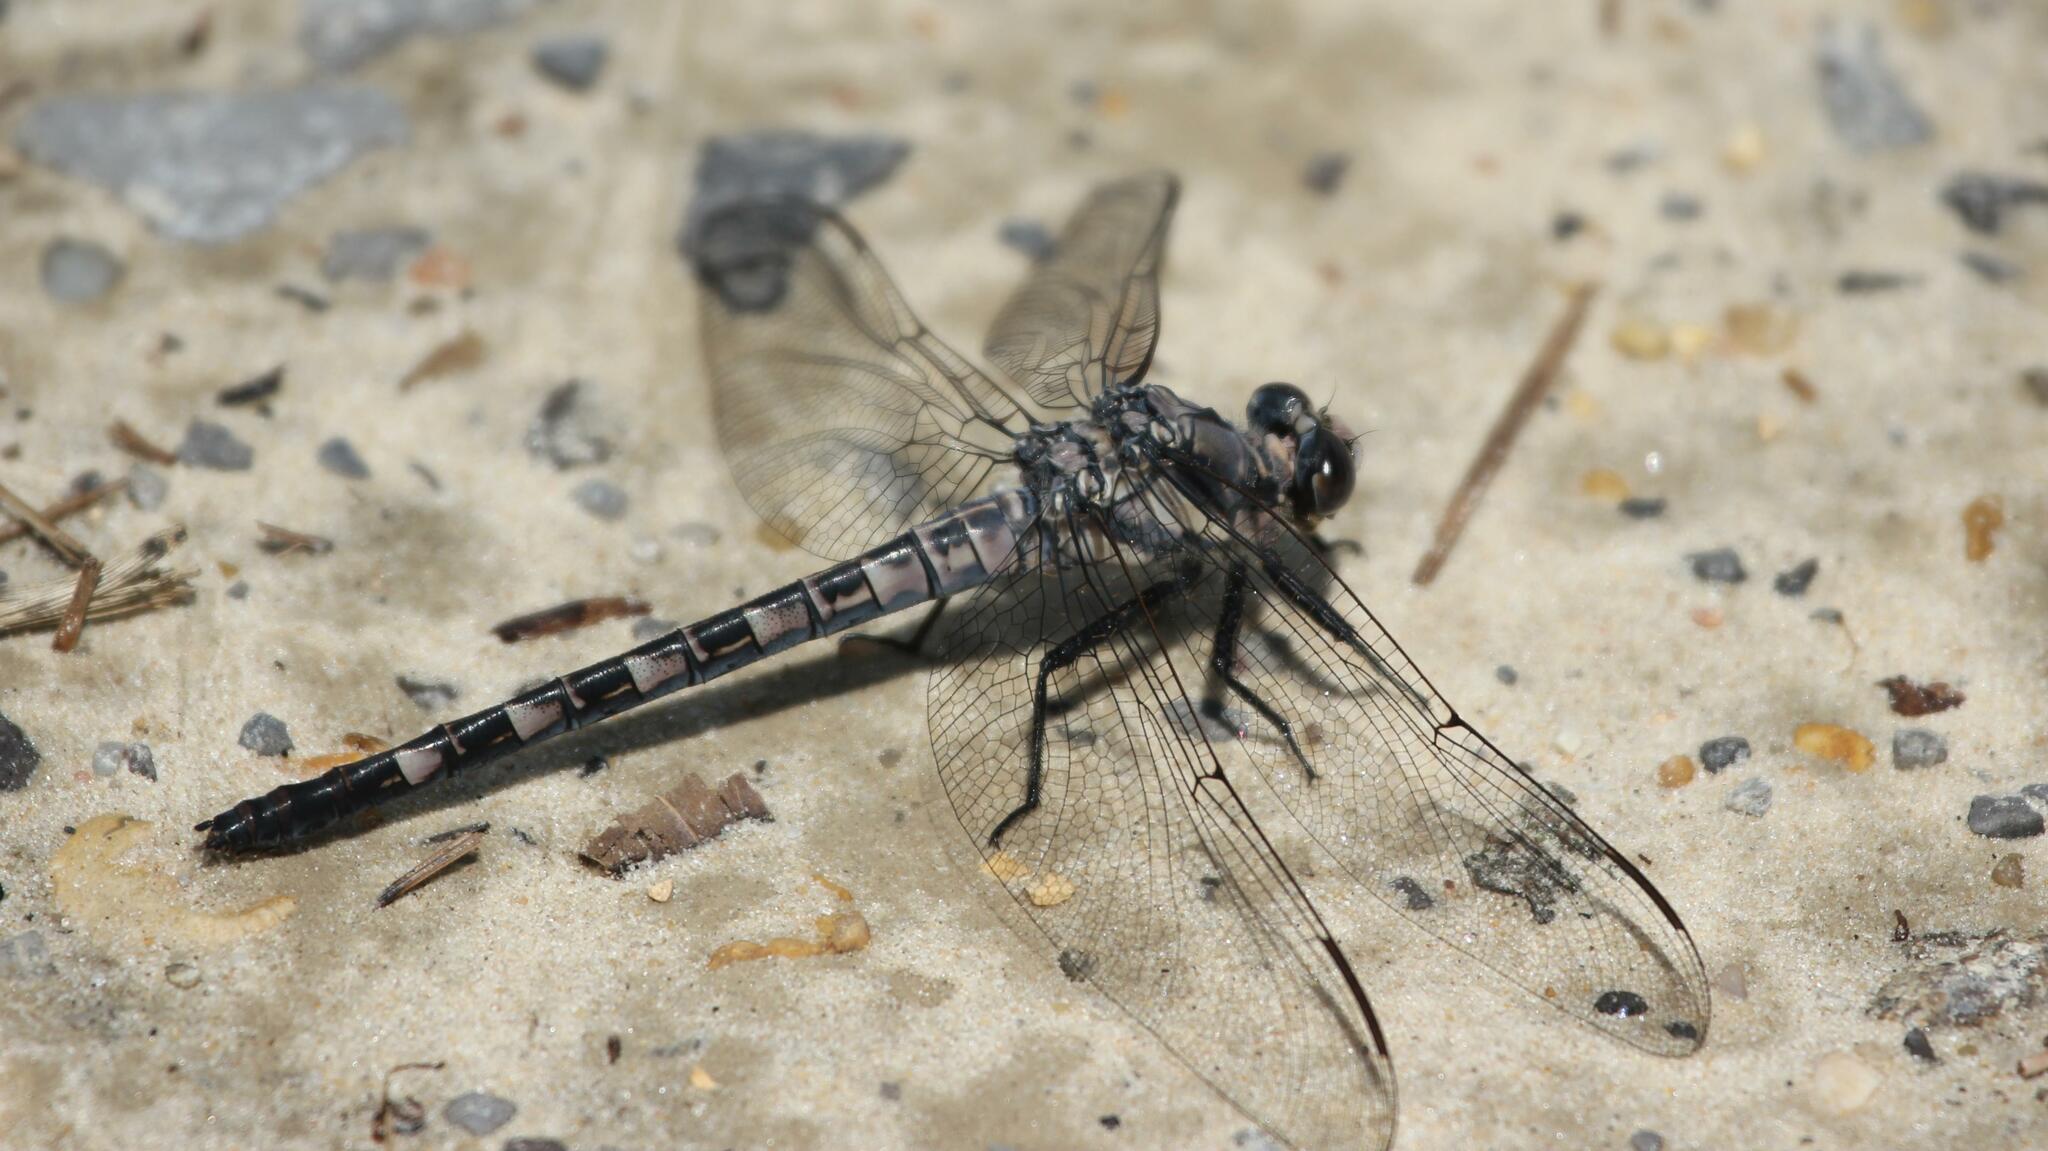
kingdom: Animalia
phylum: Arthropoda
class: Insecta
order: Odonata
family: Petaluridae
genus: Tachopteryx
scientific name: Tachopteryx thoreyi
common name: Gray petaltail
